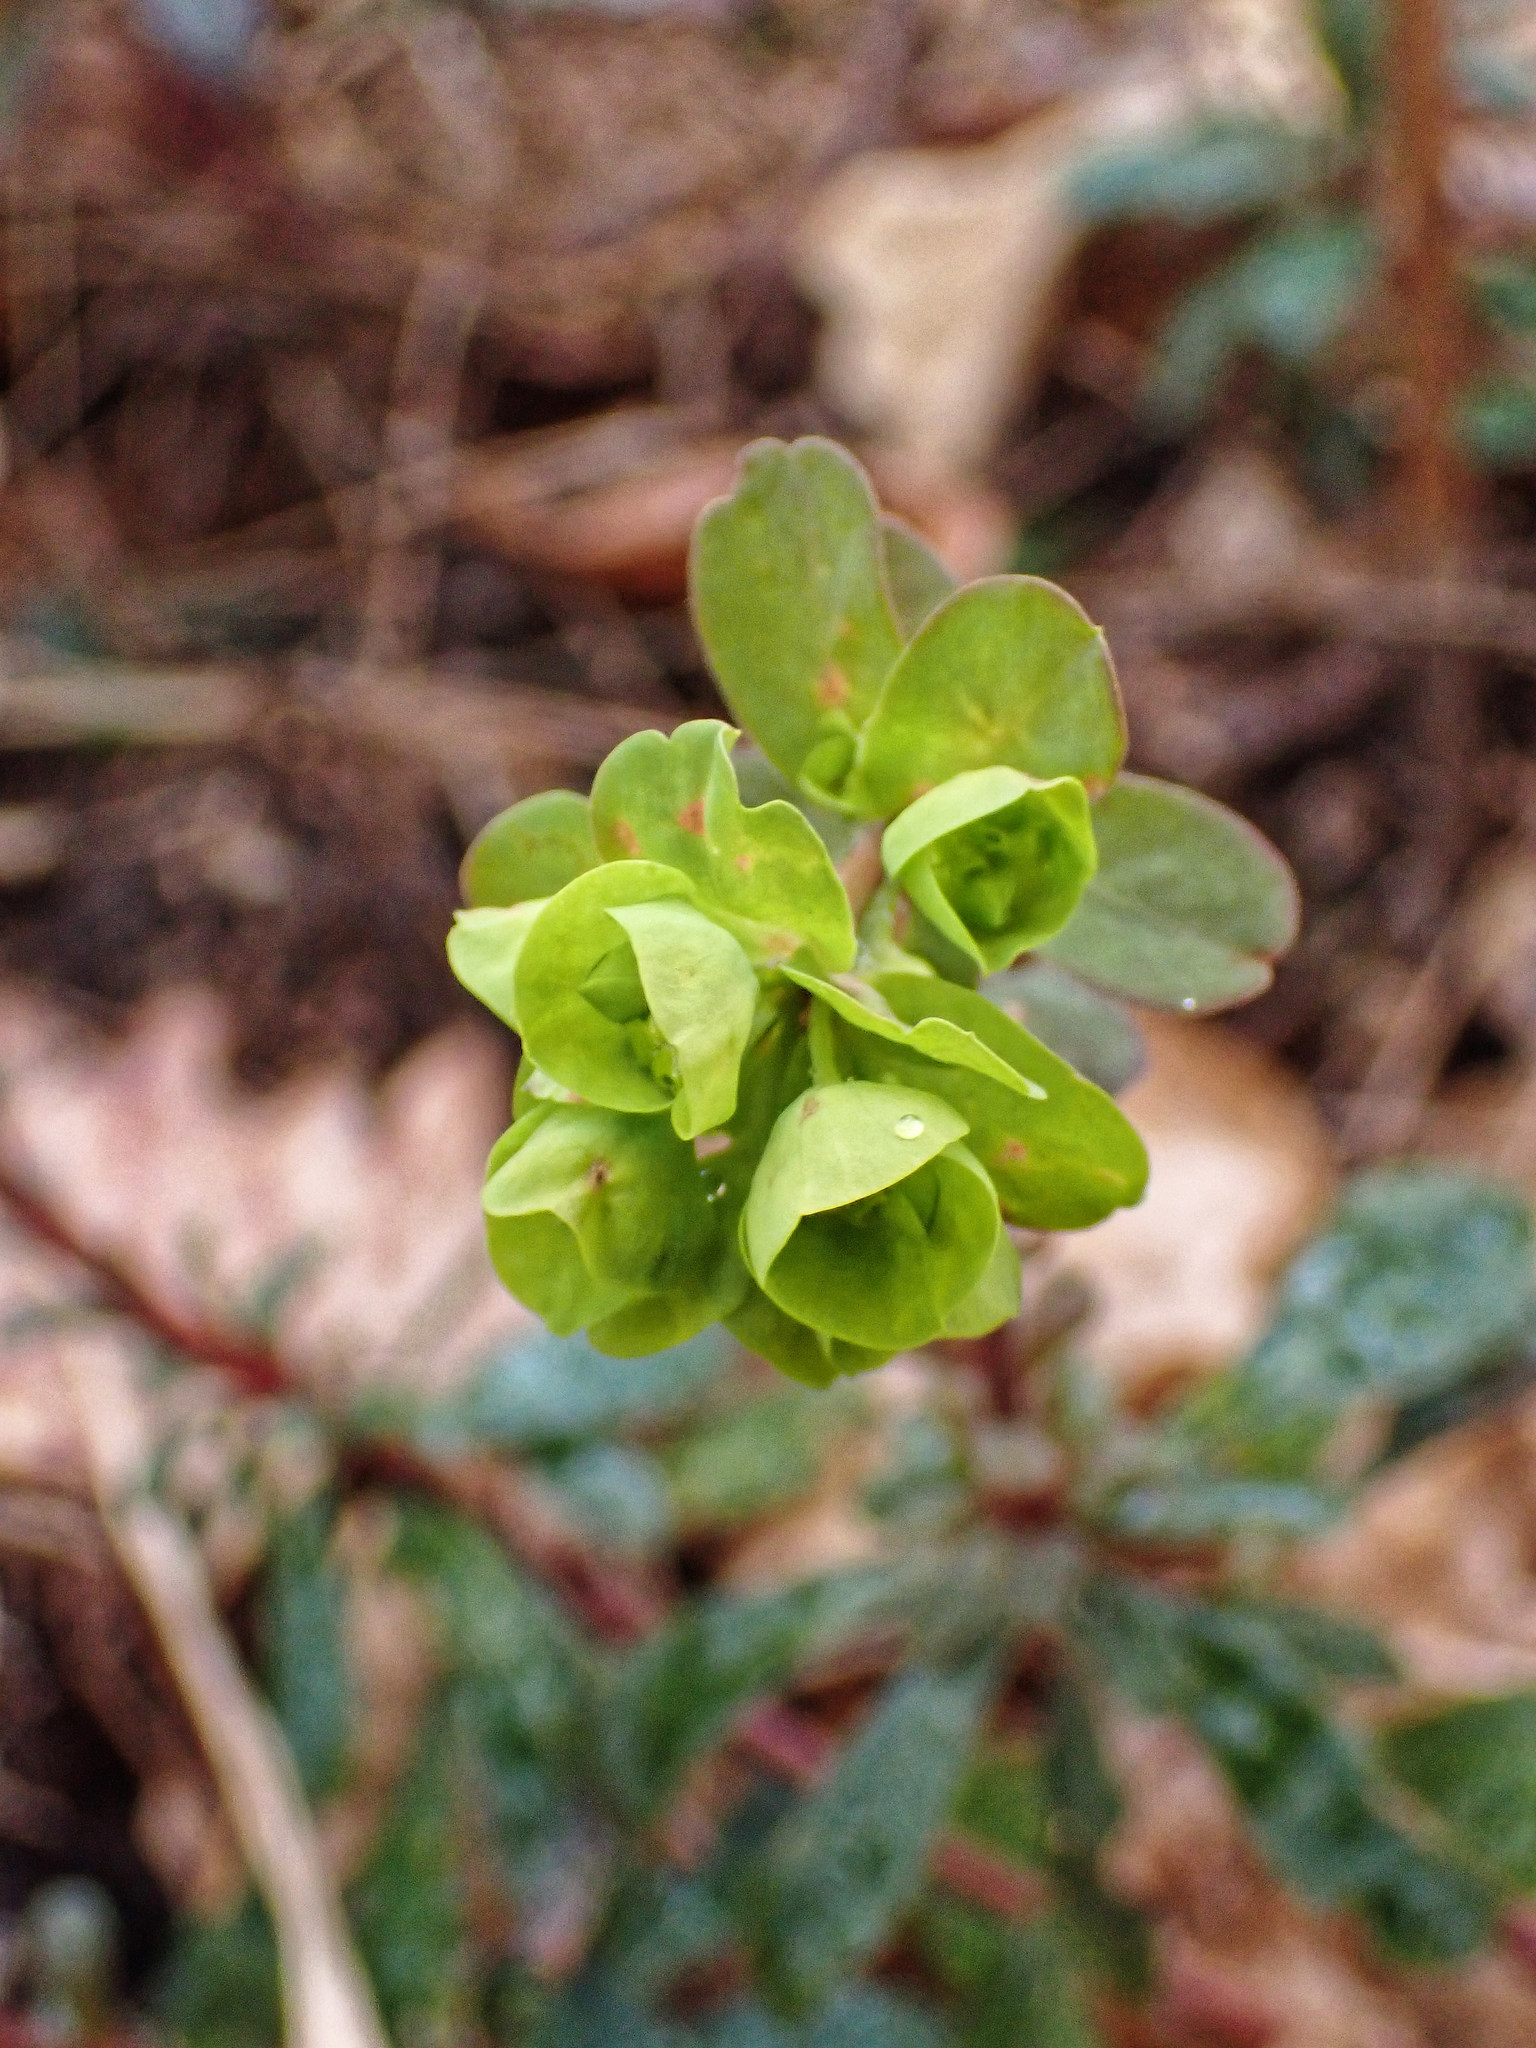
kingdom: Plantae
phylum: Tracheophyta
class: Magnoliopsida
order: Malpighiales
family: Euphorbiaceae
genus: Euphorbia
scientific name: Euphorbia amygdaloides
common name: Wood spurge
